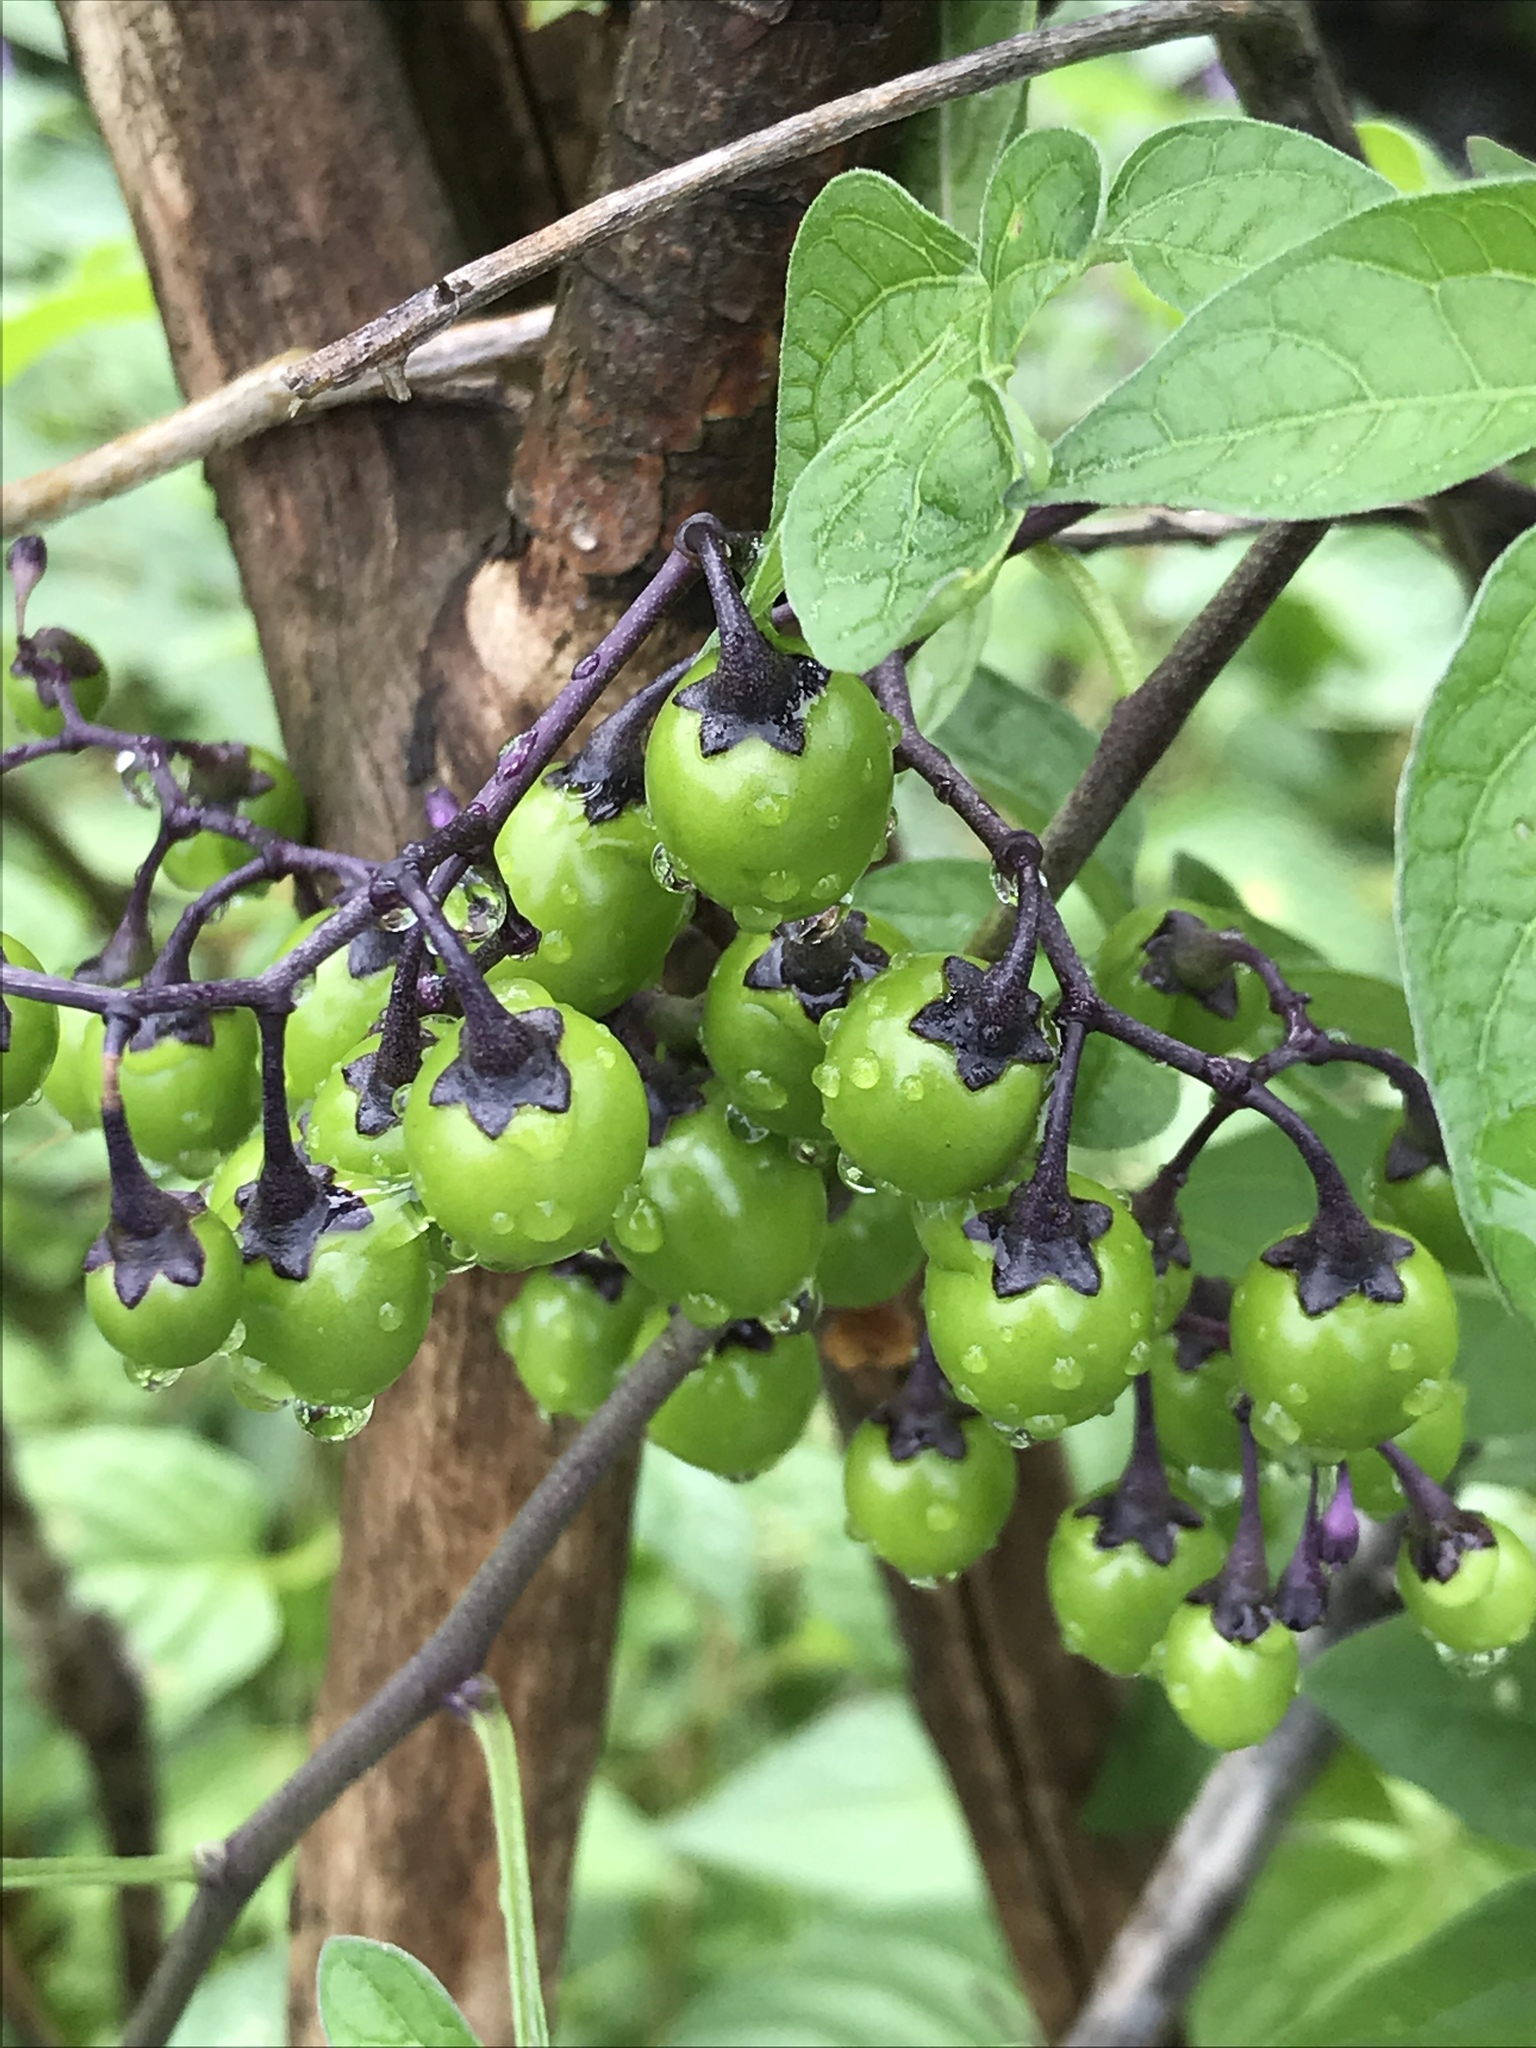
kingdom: Plantae
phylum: Tracheophyta
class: Magnoliopsida
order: Solanales
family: Solanaceae
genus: Solanum
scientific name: Solanum dulcamara
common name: Climbing nightshade
